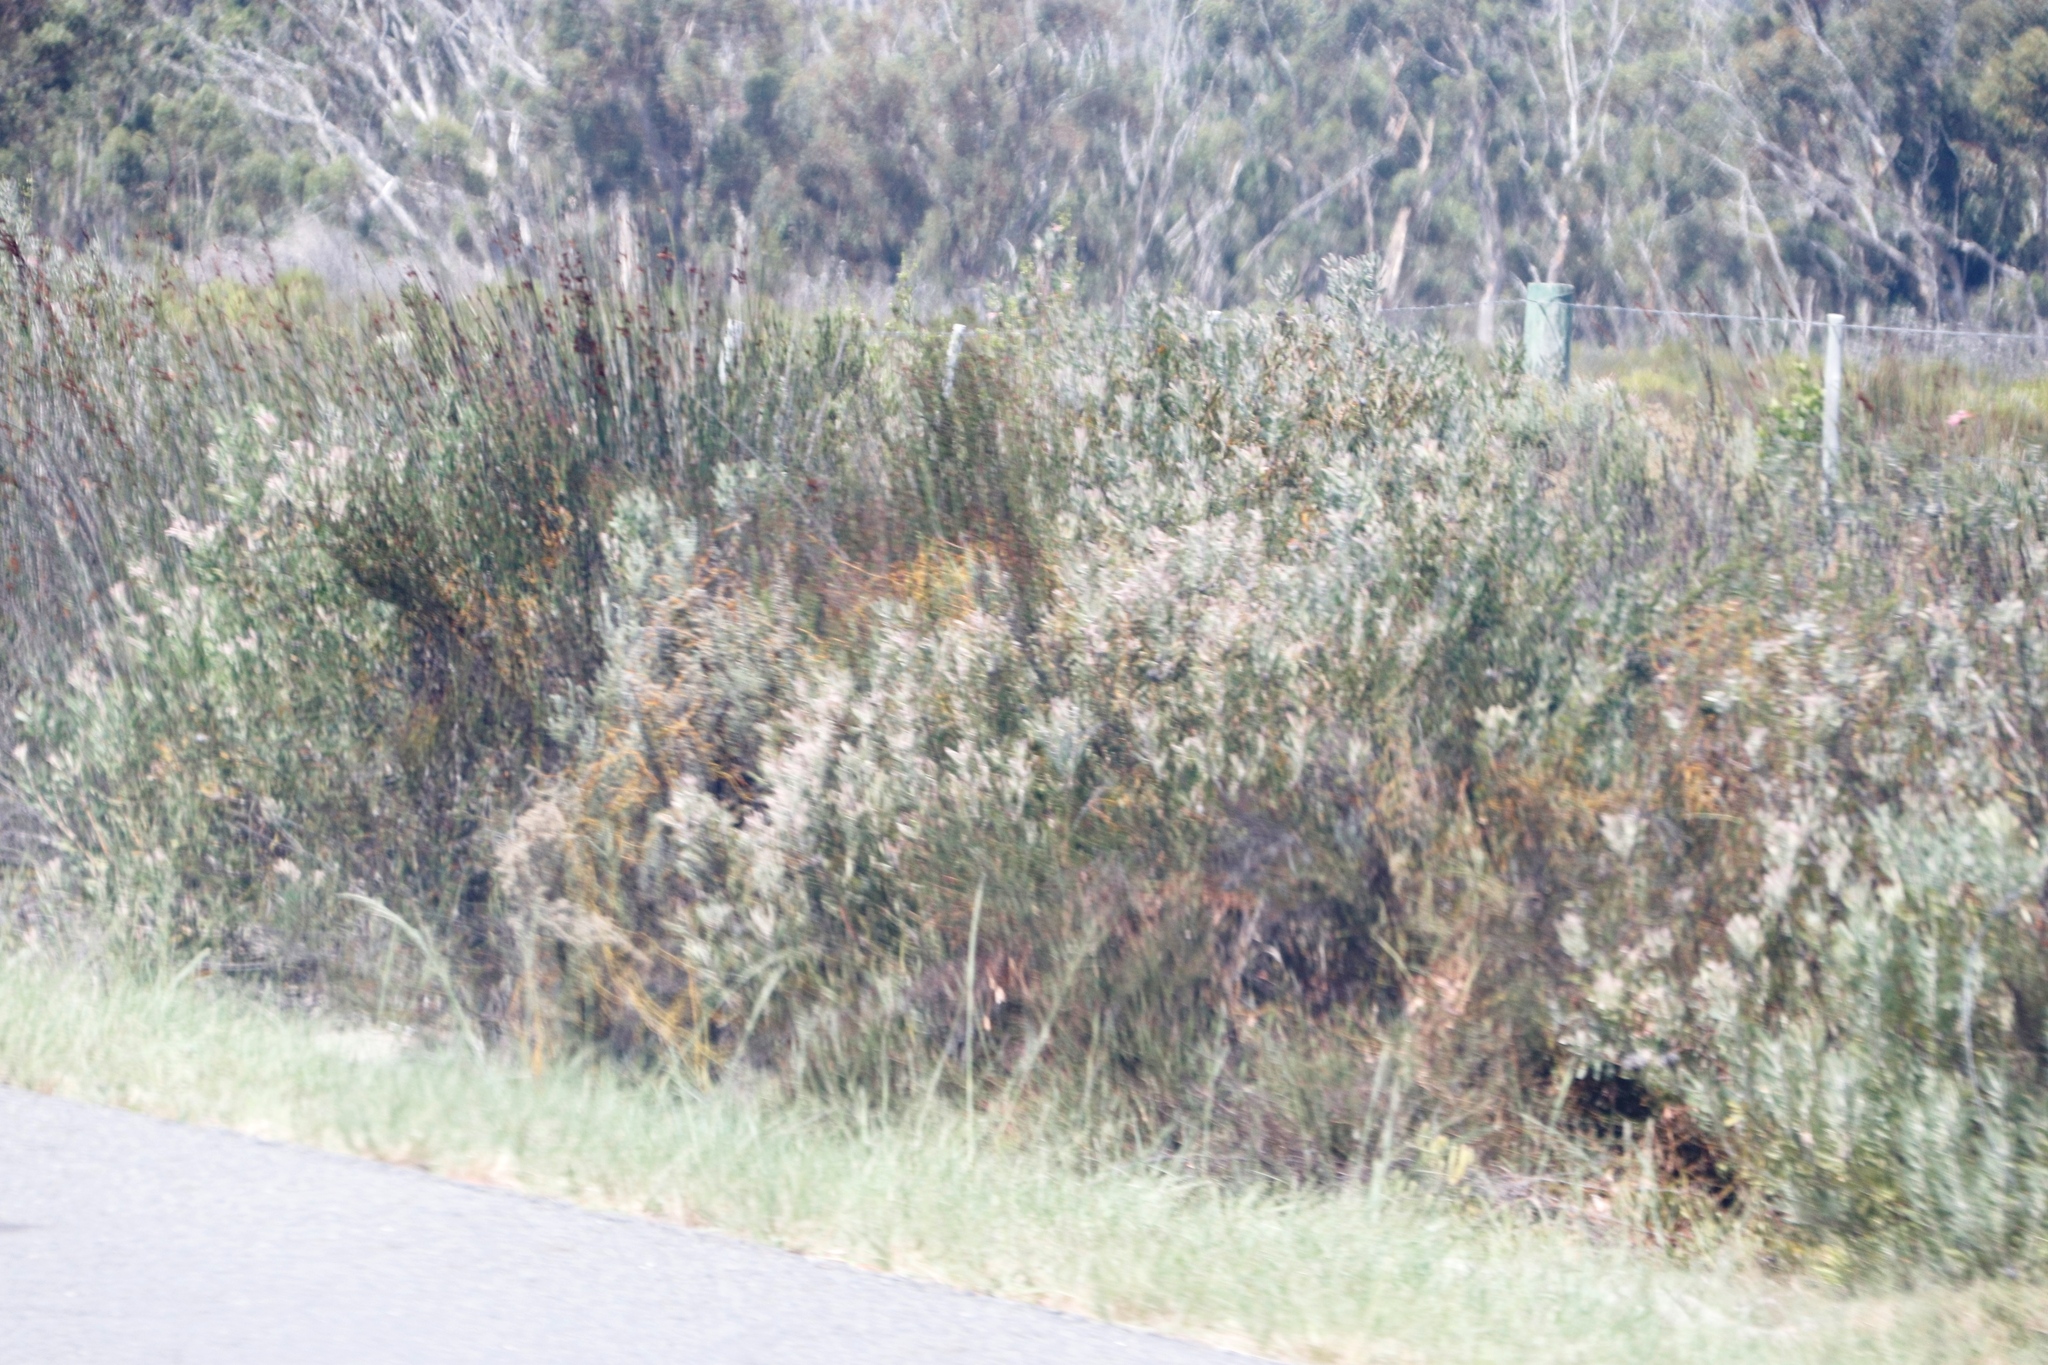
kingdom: Plantae
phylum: Tracheophyta
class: Magnoliopsida
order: Proteales
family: Proteaceae
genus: Leucospermum
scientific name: Leucospermum praecox
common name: Mossel bay pincushion
